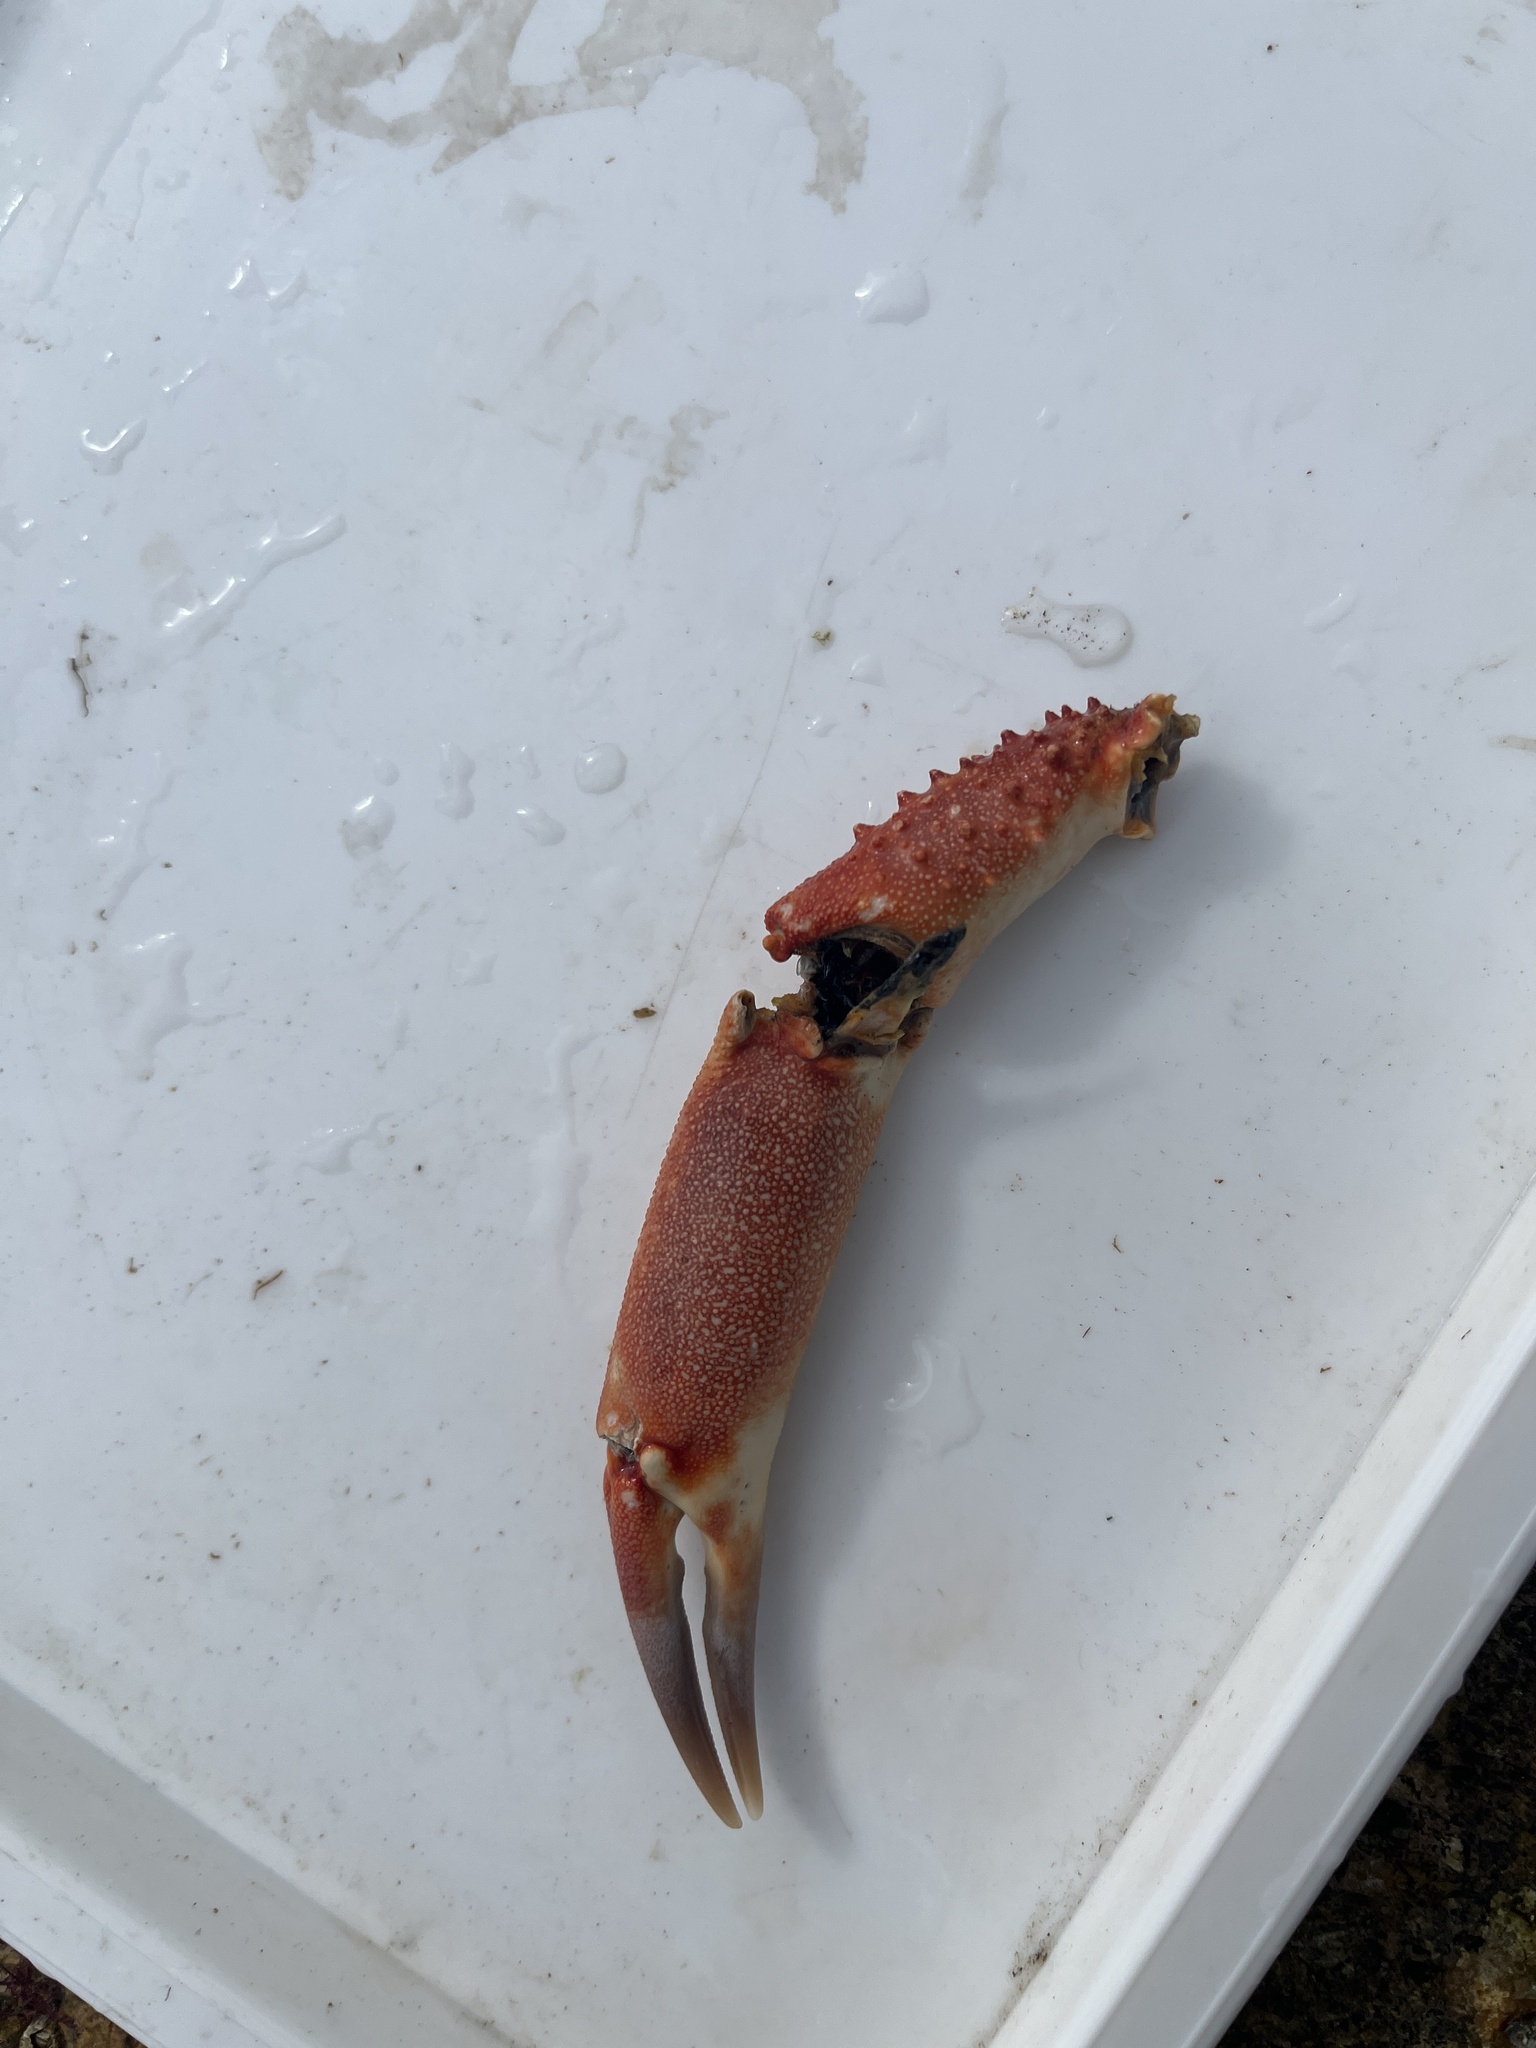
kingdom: Animalia
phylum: Arthropoda
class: Malacostraca
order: Decapoda
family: Majidae
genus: Maja
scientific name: Maja brachydactyla
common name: Common spider crab
